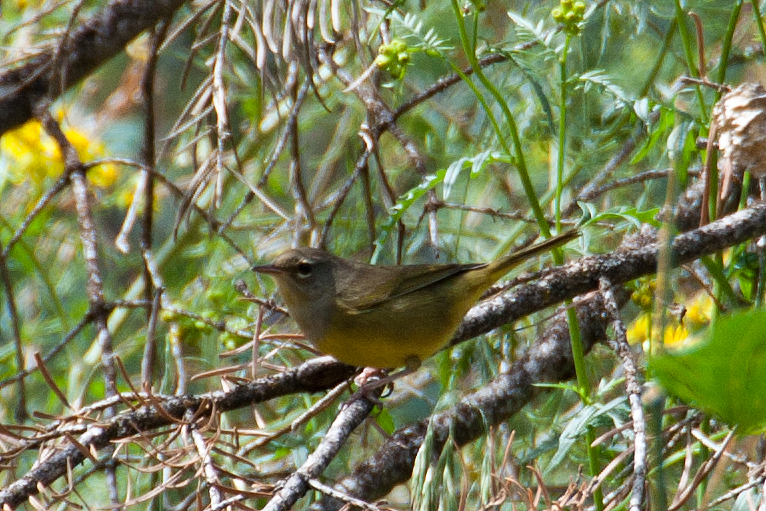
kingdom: Animalia
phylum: Chordata
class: Aves
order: Passeriformes
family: Parulidae
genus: Geothlypis
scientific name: Geothlypis tolmiei
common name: Macgillivray's warbler
